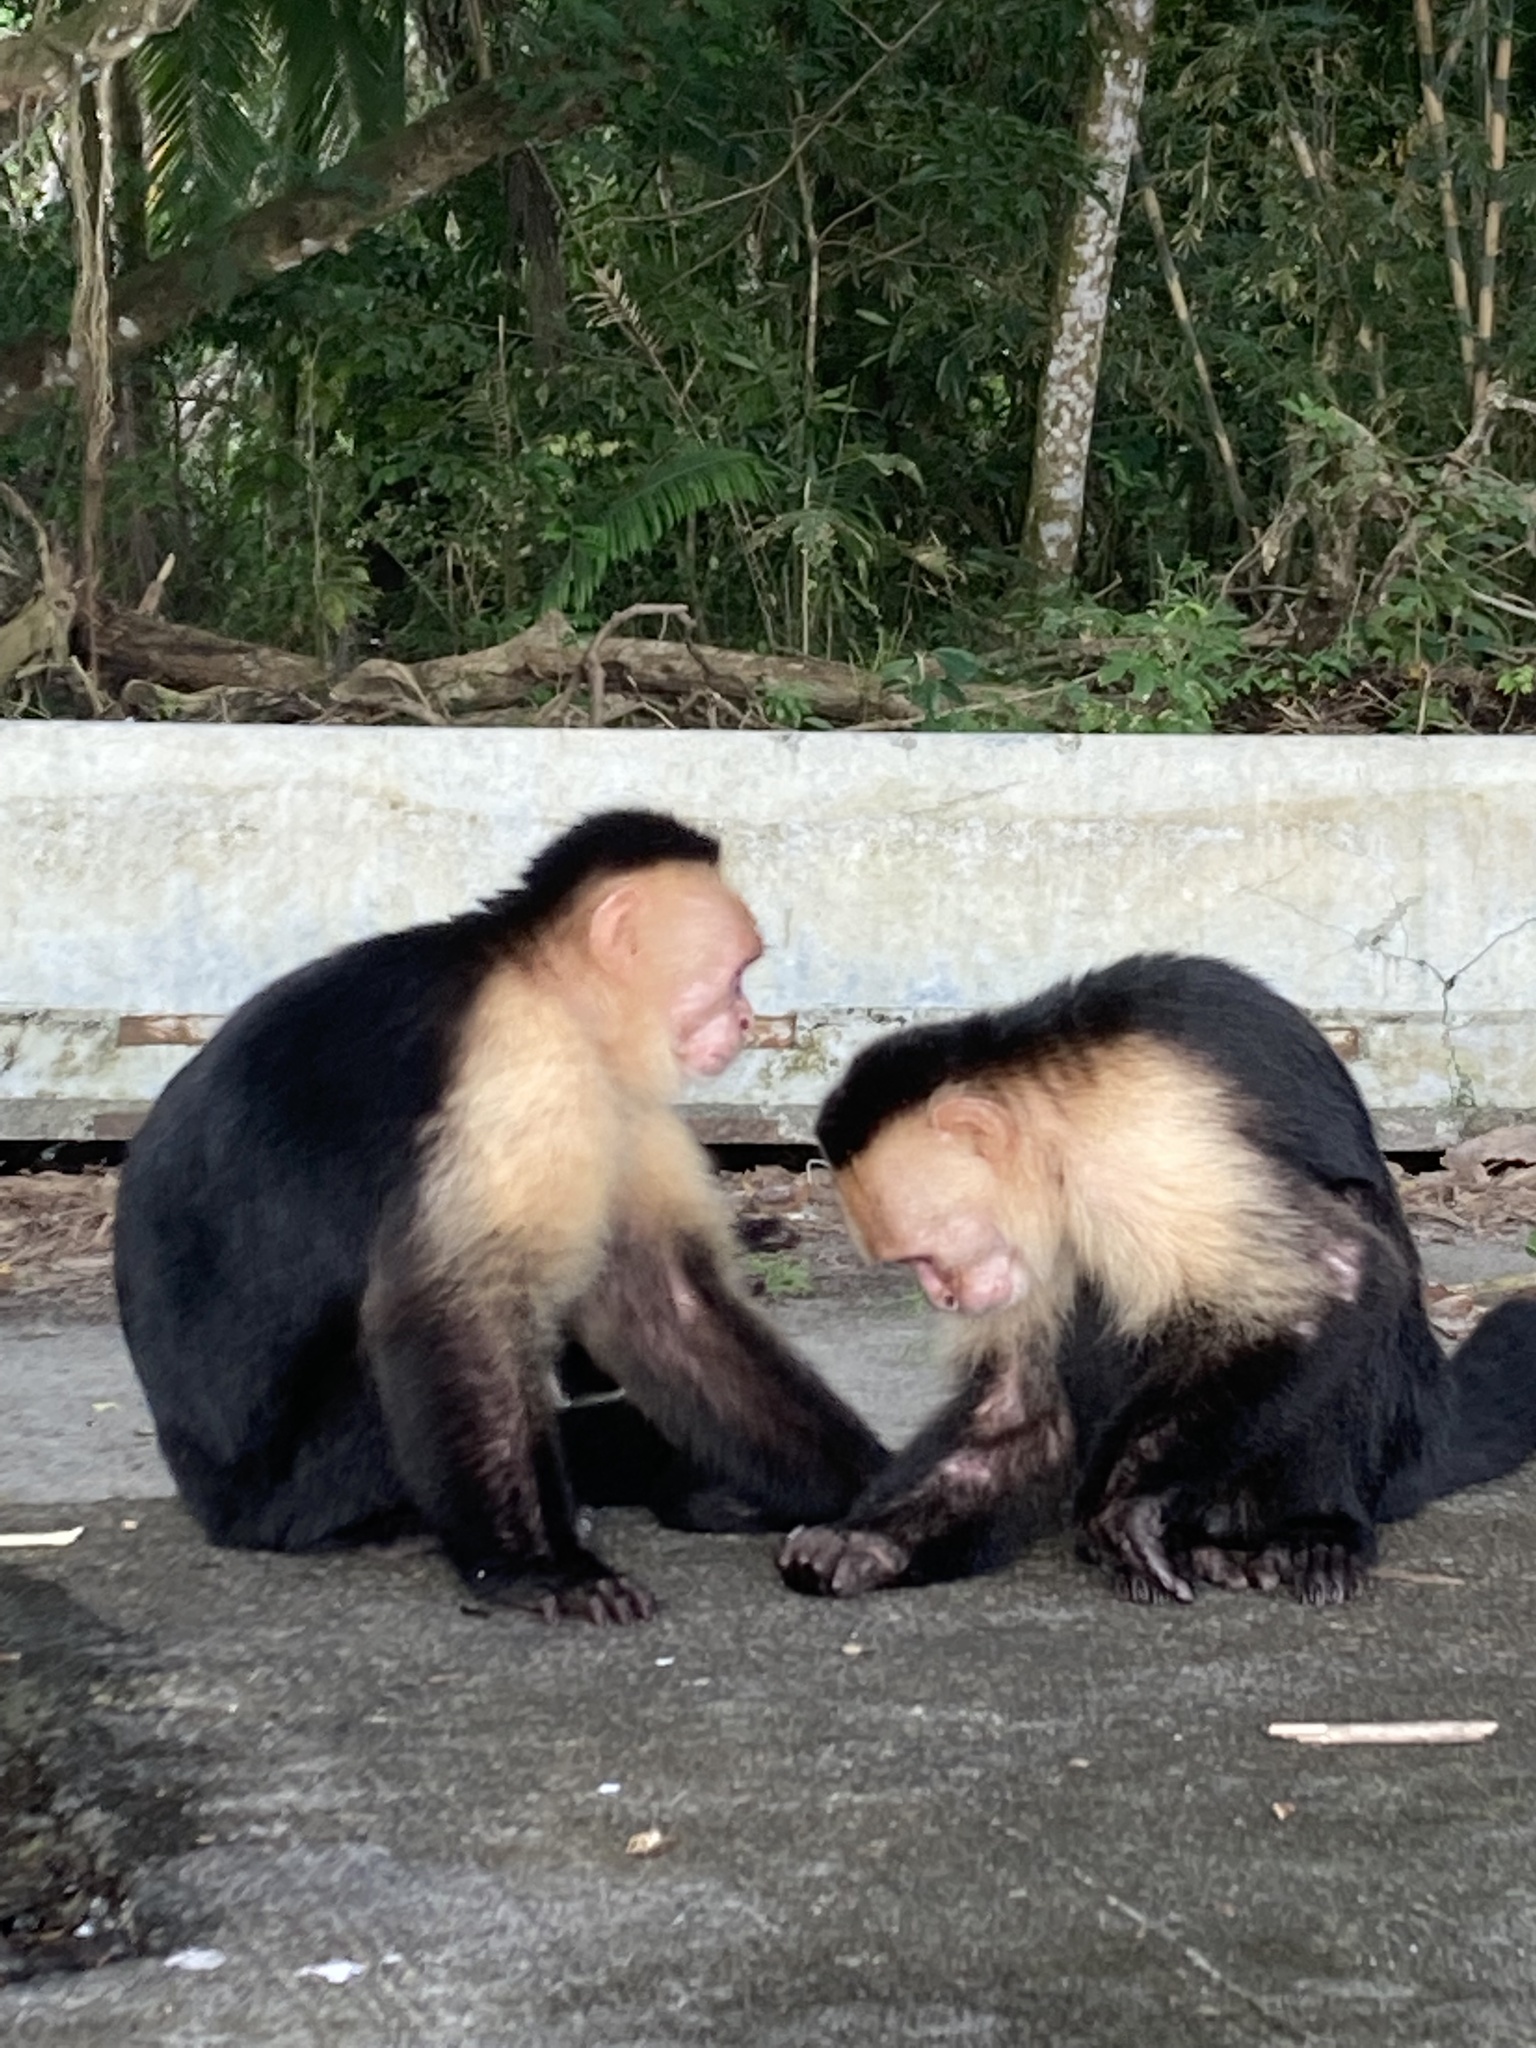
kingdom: Animalia
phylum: Chordata
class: Mammalia
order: Primates
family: Cebidae
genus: Cebus
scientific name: Cebus imitator
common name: Panamanian white-faced capuchin
